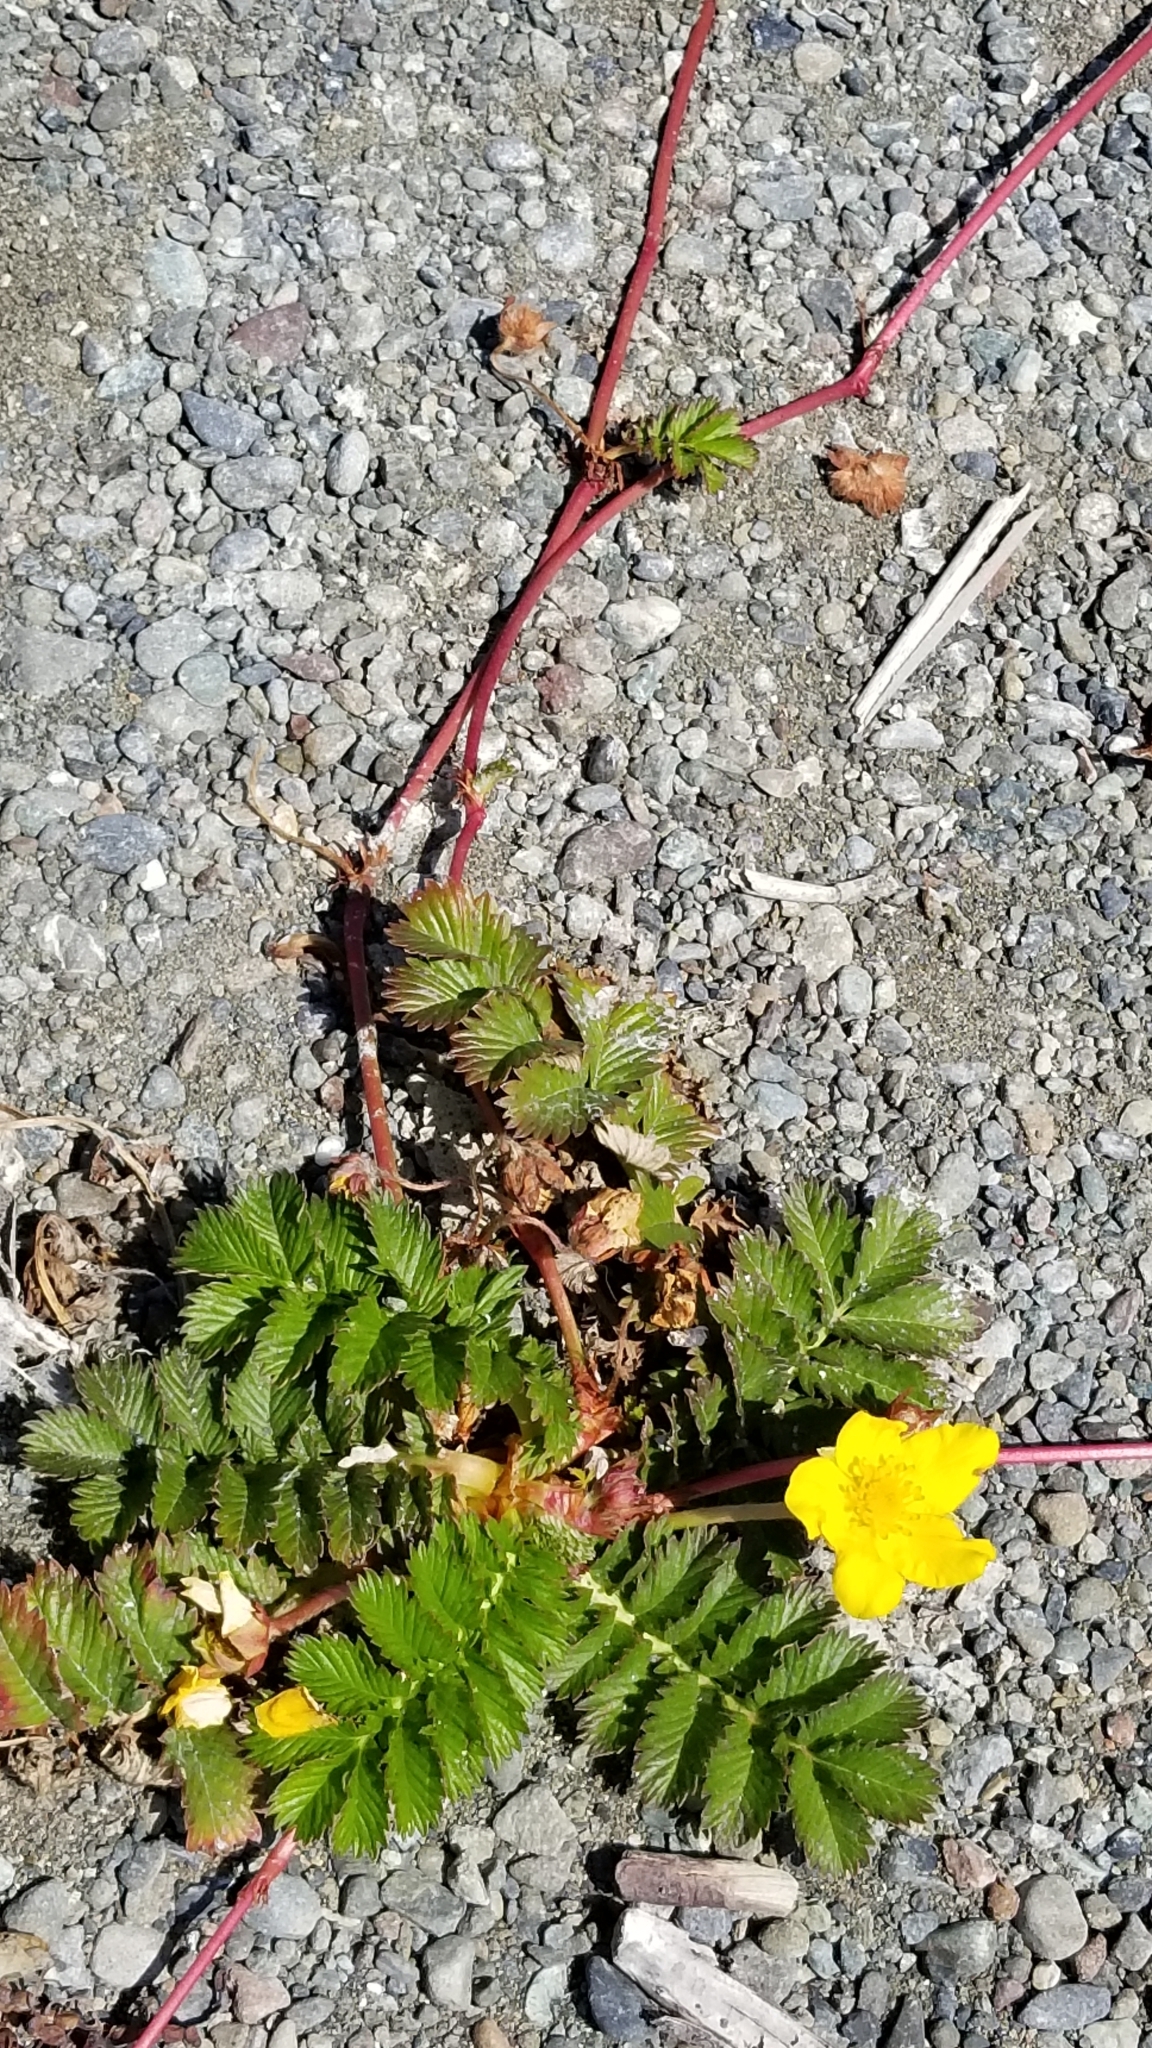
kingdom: Plantae
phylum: Tracheophyta
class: Magnoliopsida
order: Rosales
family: Rosaceae
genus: Argentina
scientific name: Argentina anserina
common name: Common silverweed
